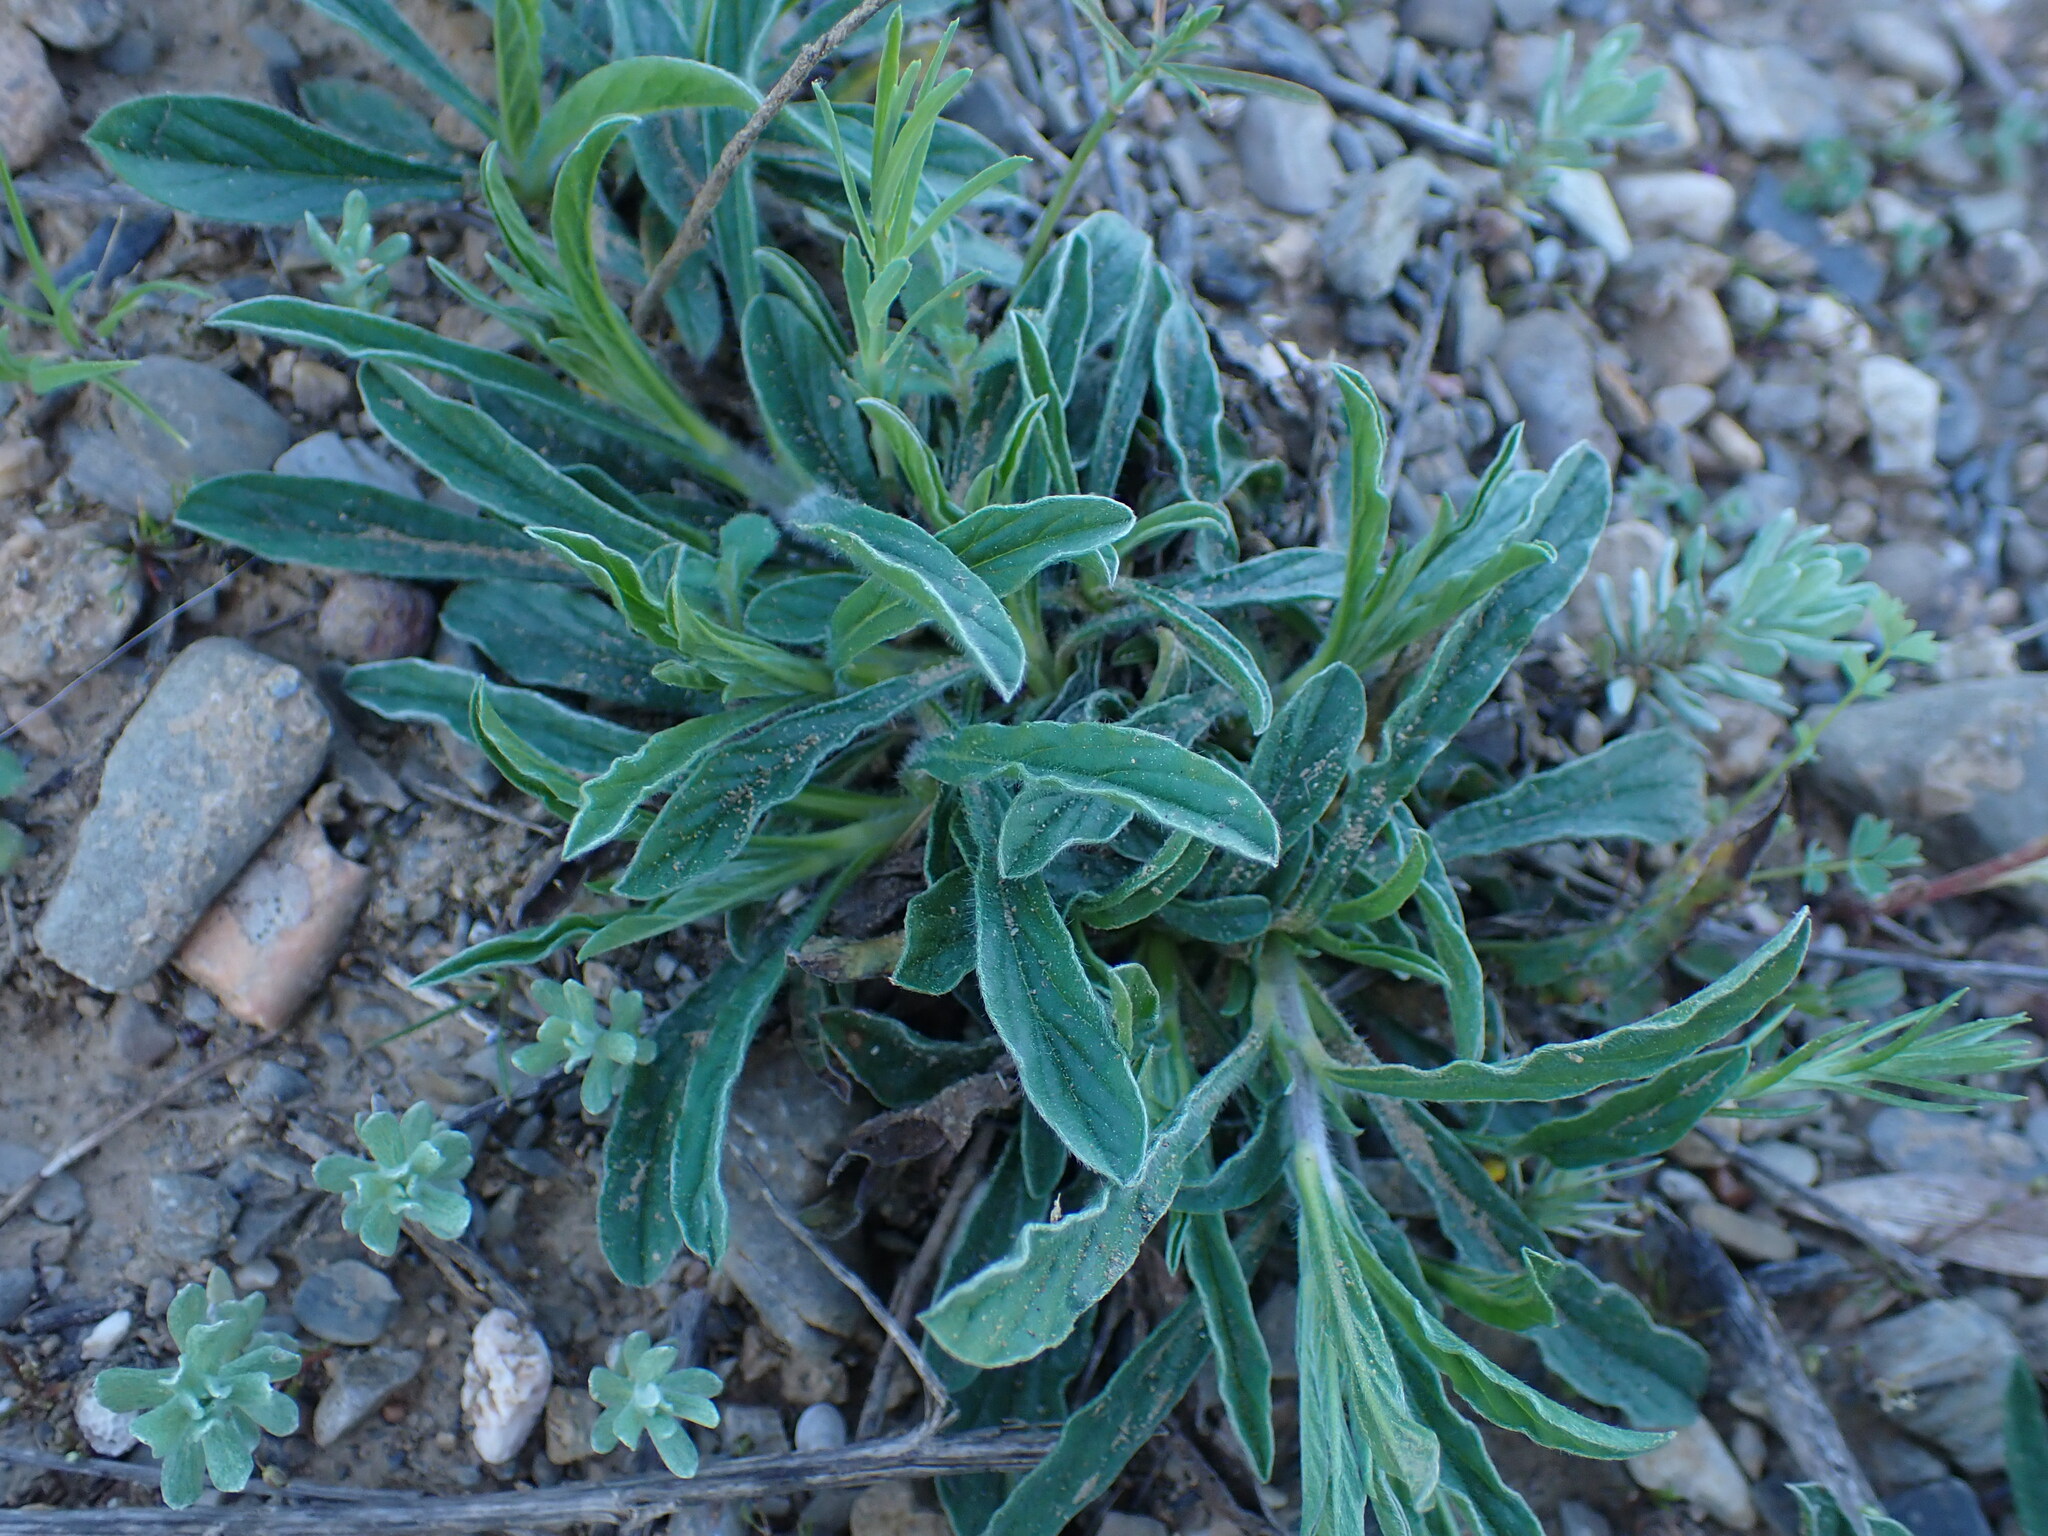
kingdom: Plantae
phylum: Tracheophyta
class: Magnoliopsida
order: Solanales
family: Convolvulaceae
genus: Convolvulus
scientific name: Convolvulus cantabrica
